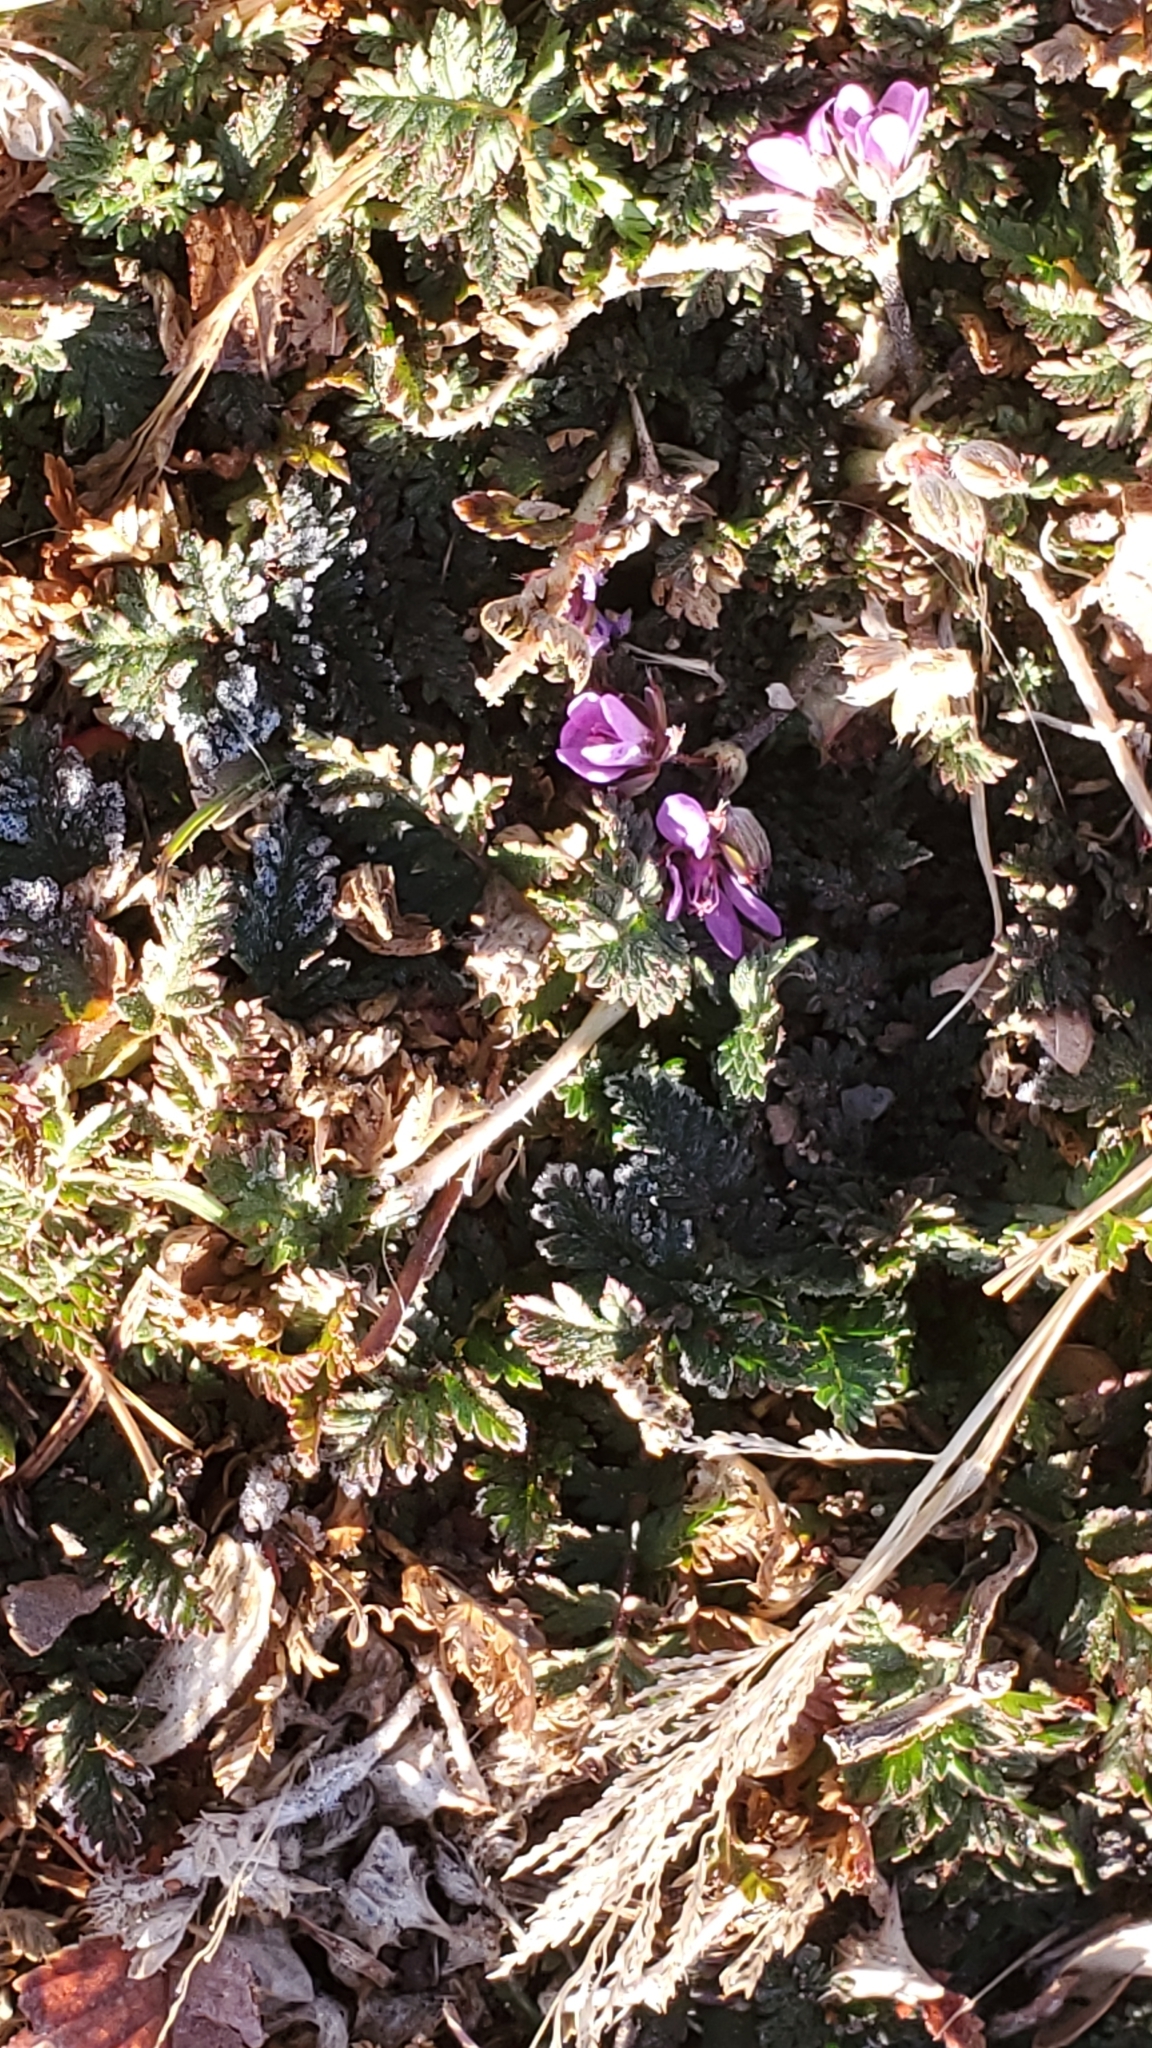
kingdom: Plantae
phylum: Tracheophyta
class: Magnoliopsida
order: Geraniales
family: Geraniaceae
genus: Erodium
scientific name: Erodium cicutarium
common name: Common stork's-bill
